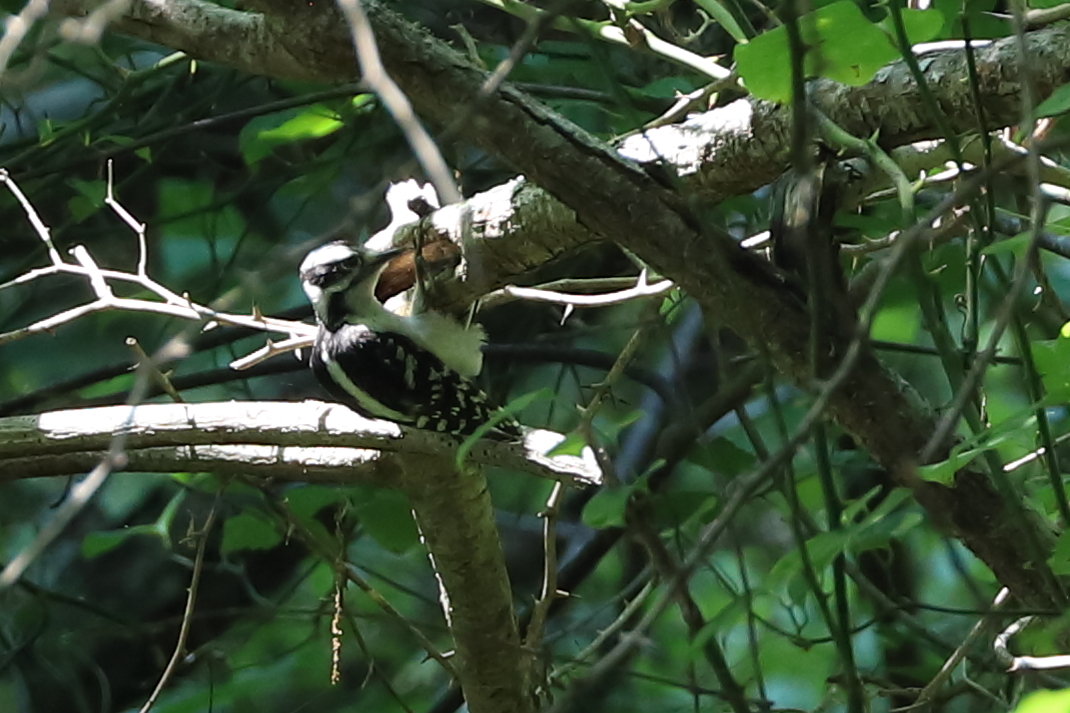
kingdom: Animalia
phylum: Chordata
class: Aves
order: Piciformes
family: Picidae
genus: Dryobates
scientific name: Dryobates pubescens
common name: Downy woodpecker
